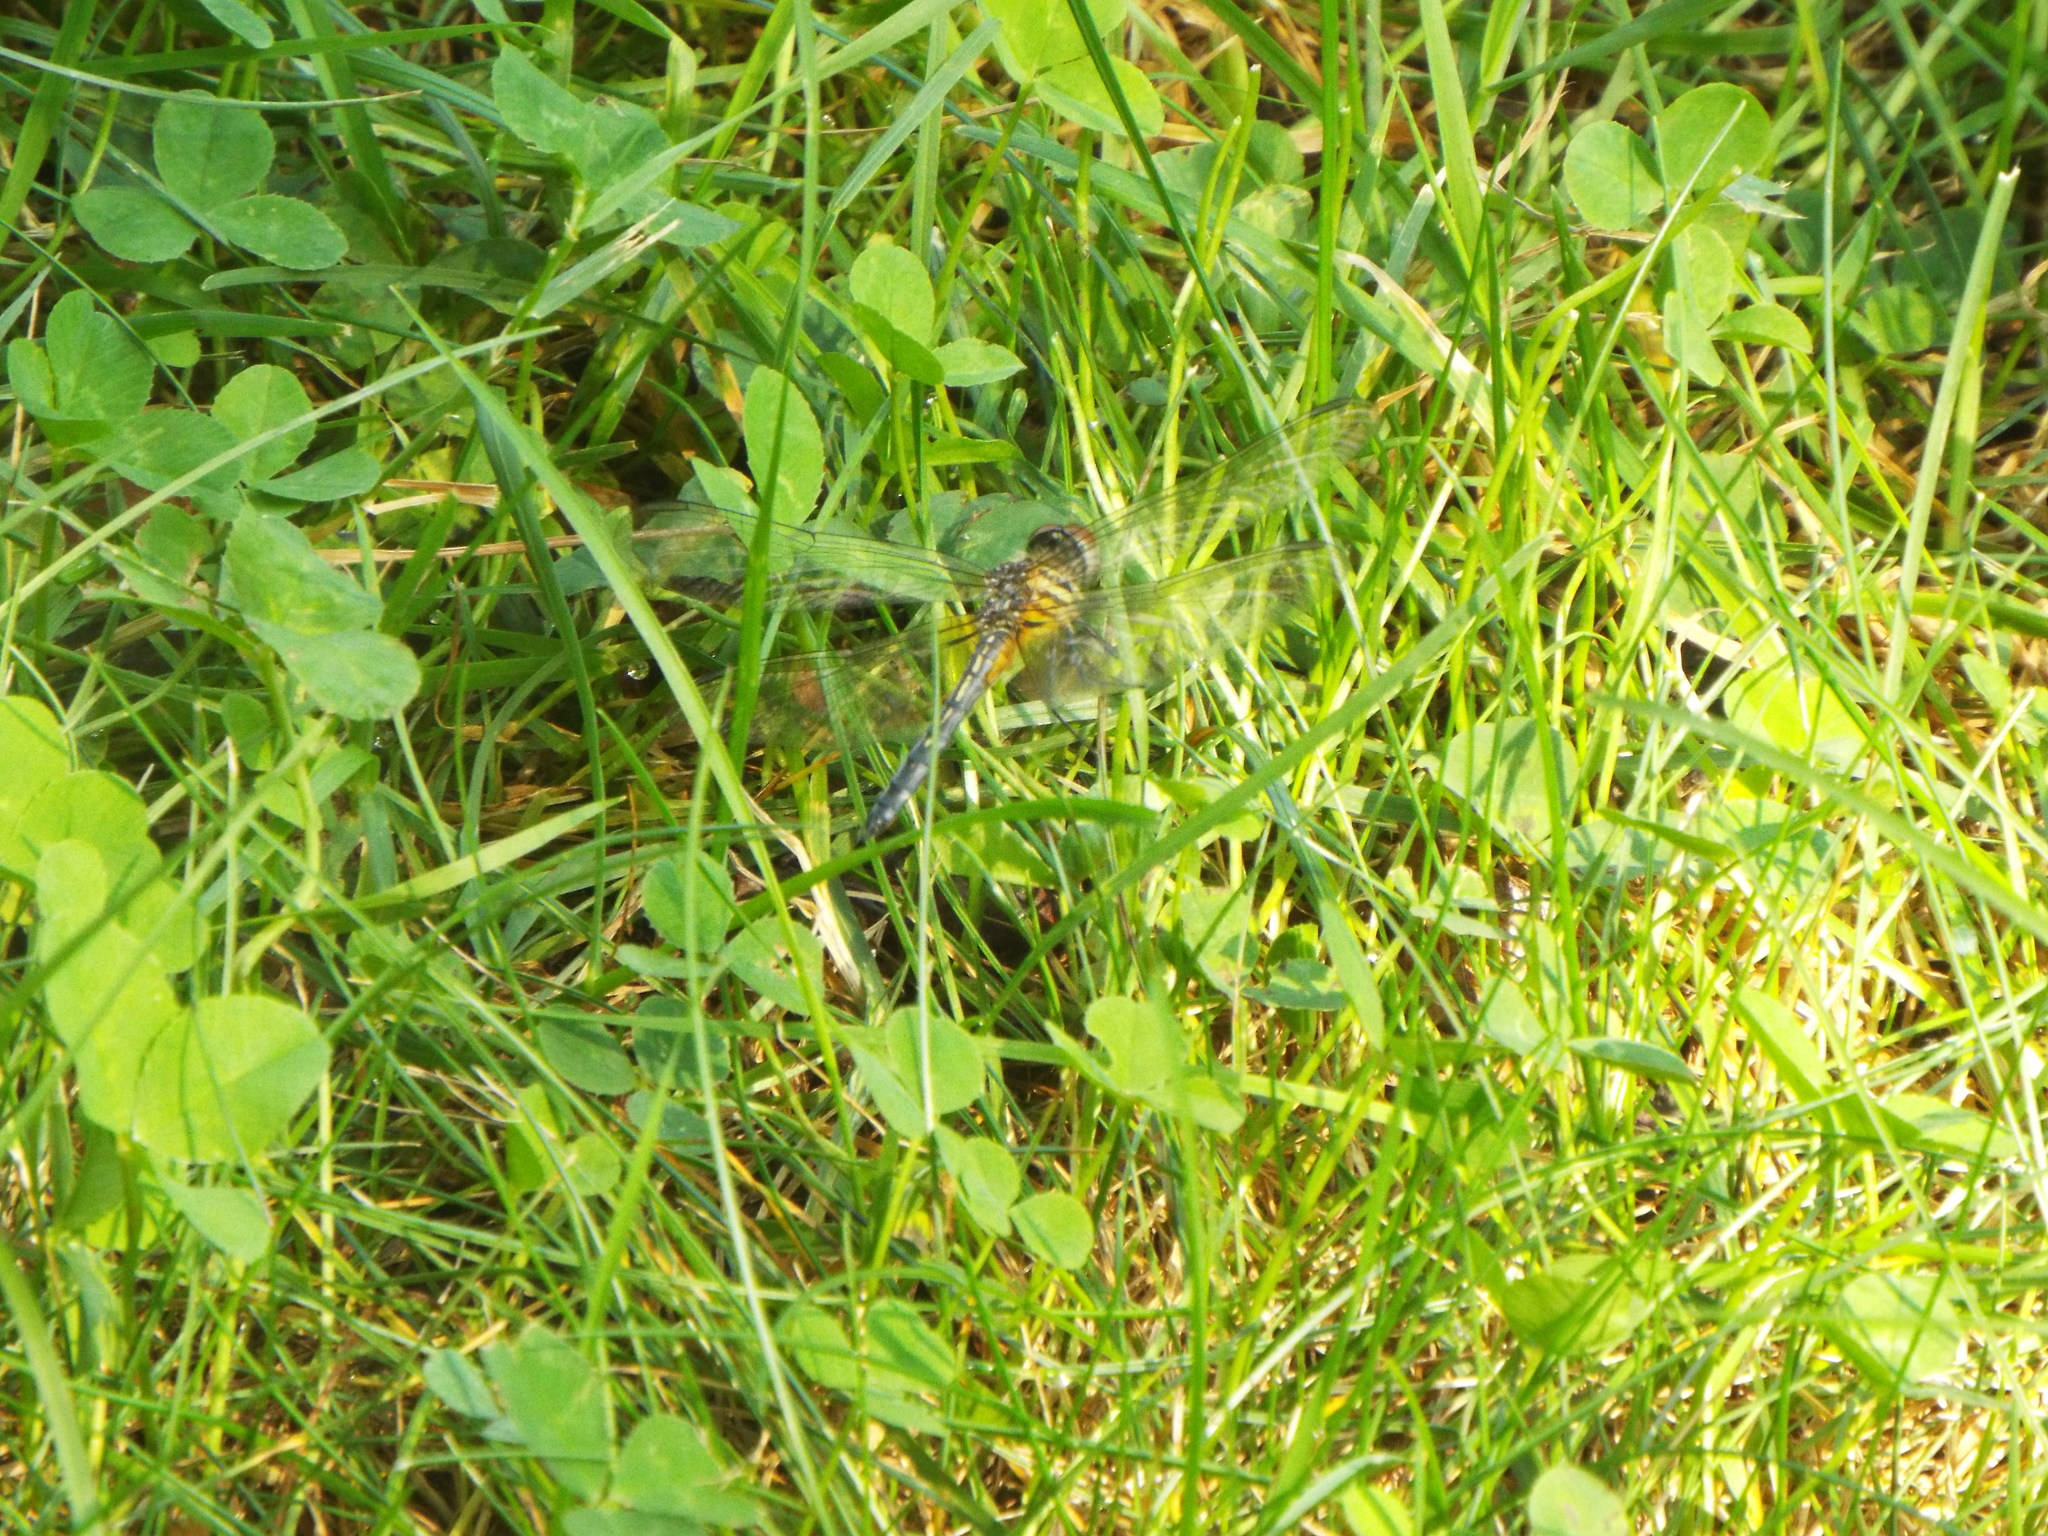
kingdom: Animalia
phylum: Arthropoda
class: Insecta
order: Odonata
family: Libellulidae
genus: Pachydiplax
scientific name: Pachydiplax longipennis
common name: Blue dasher
